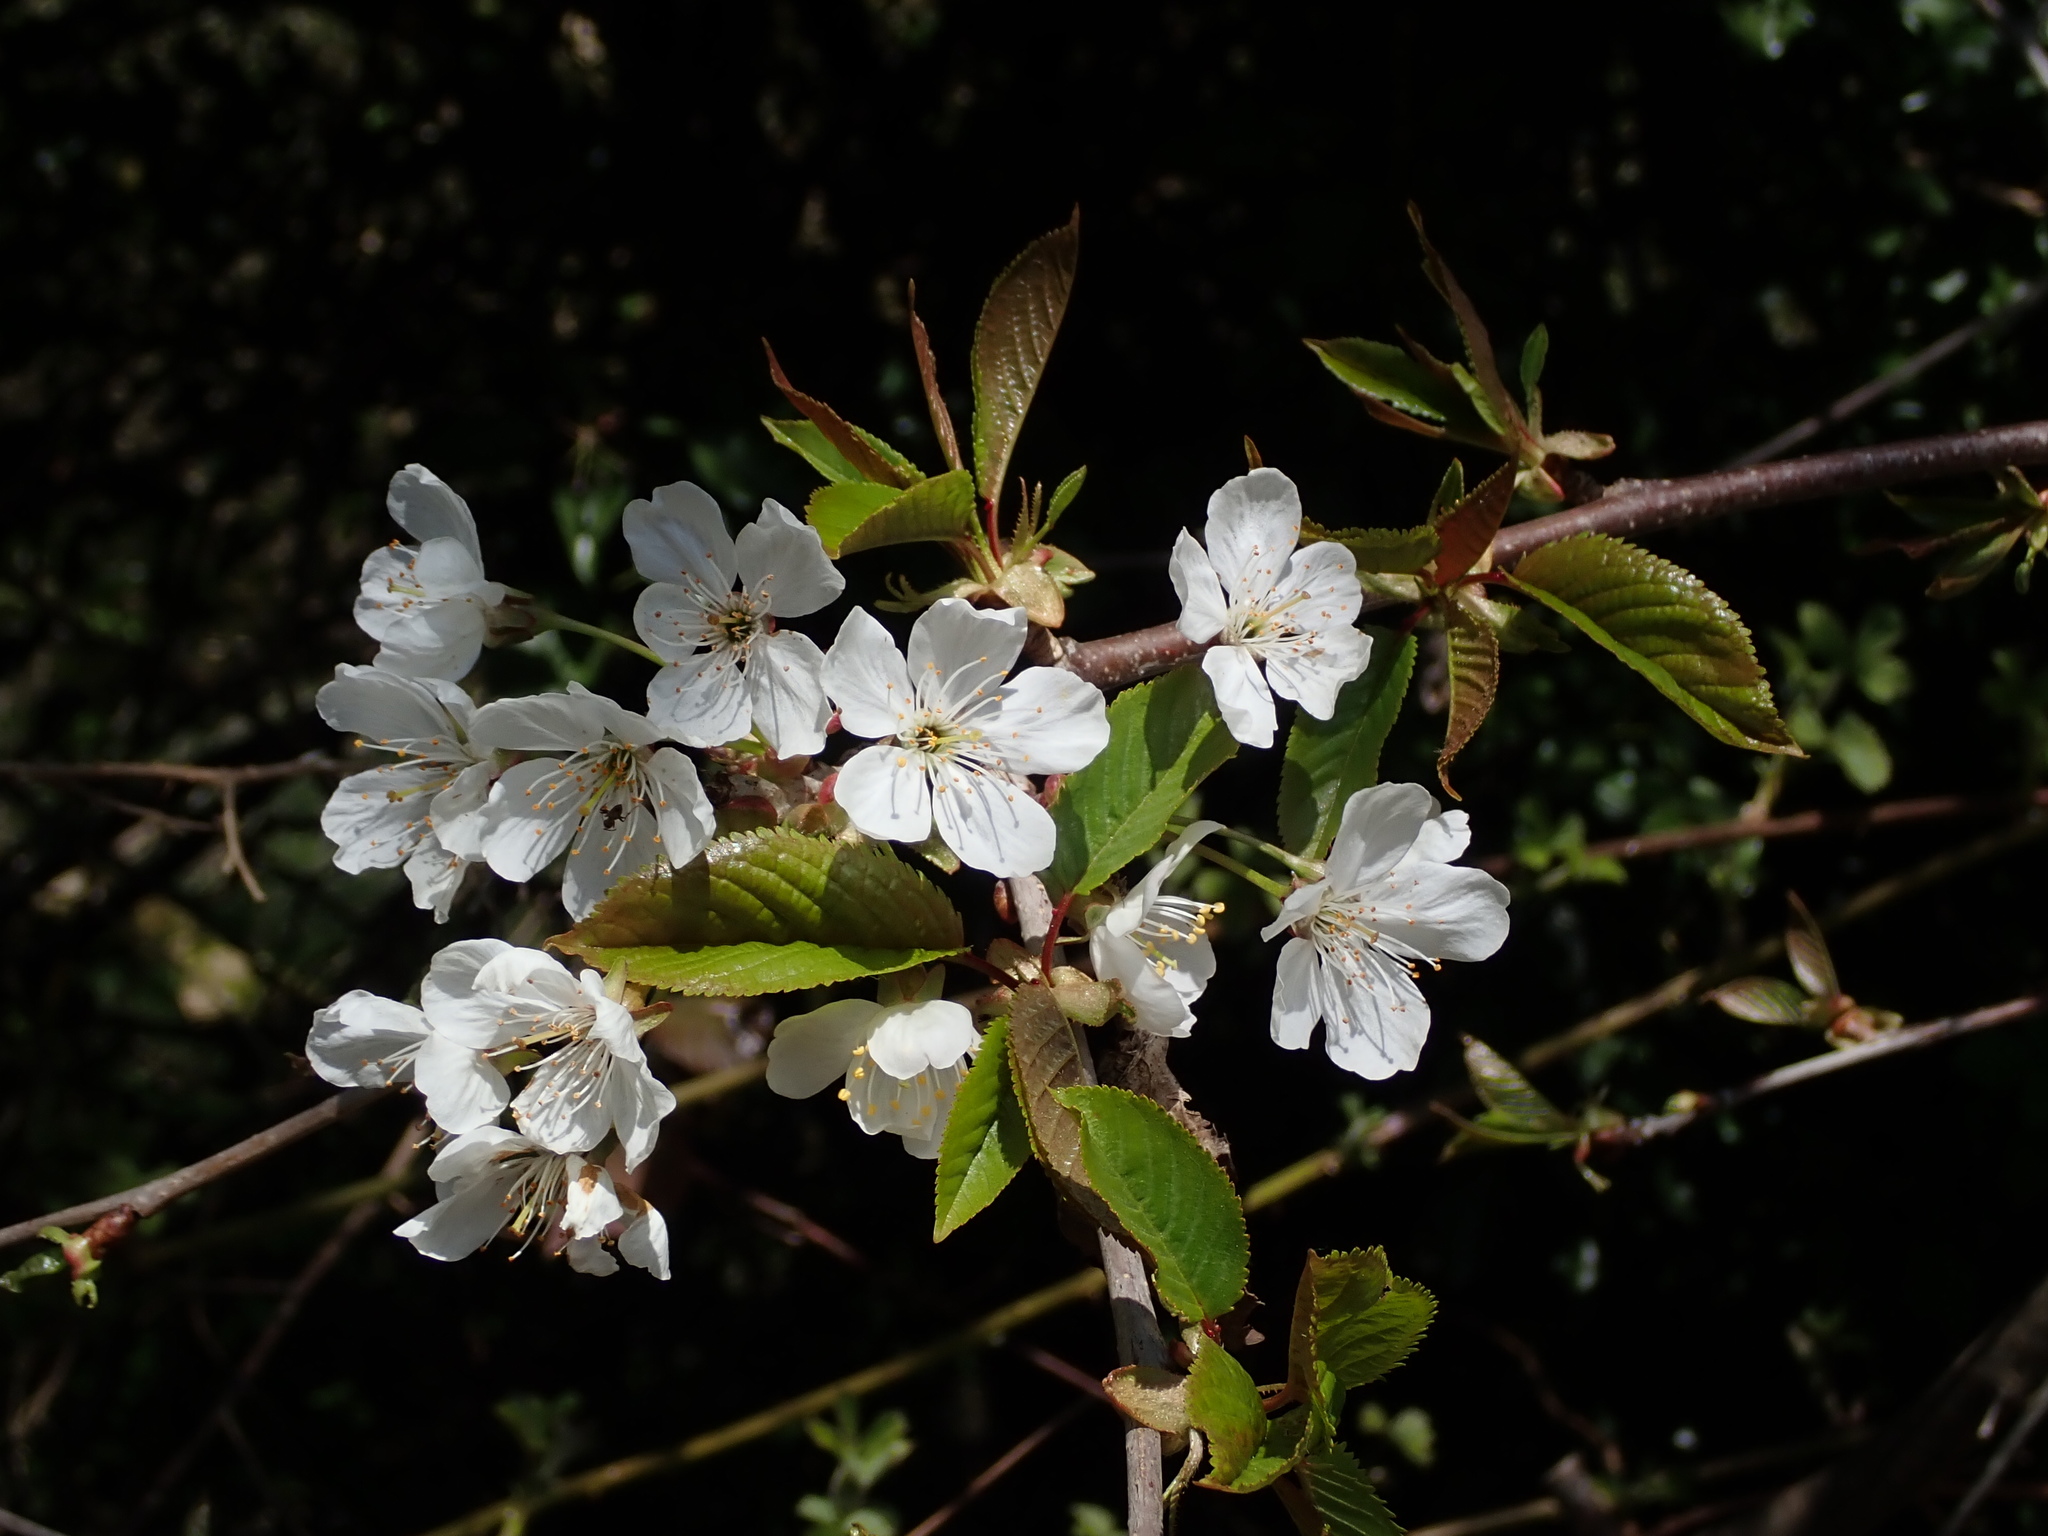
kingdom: Plantae
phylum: Tracheophyta
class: Magnoliopsida
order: Rosales
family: Rosaceae
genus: Prunus
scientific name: Prunus avium
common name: Sweet cherry
